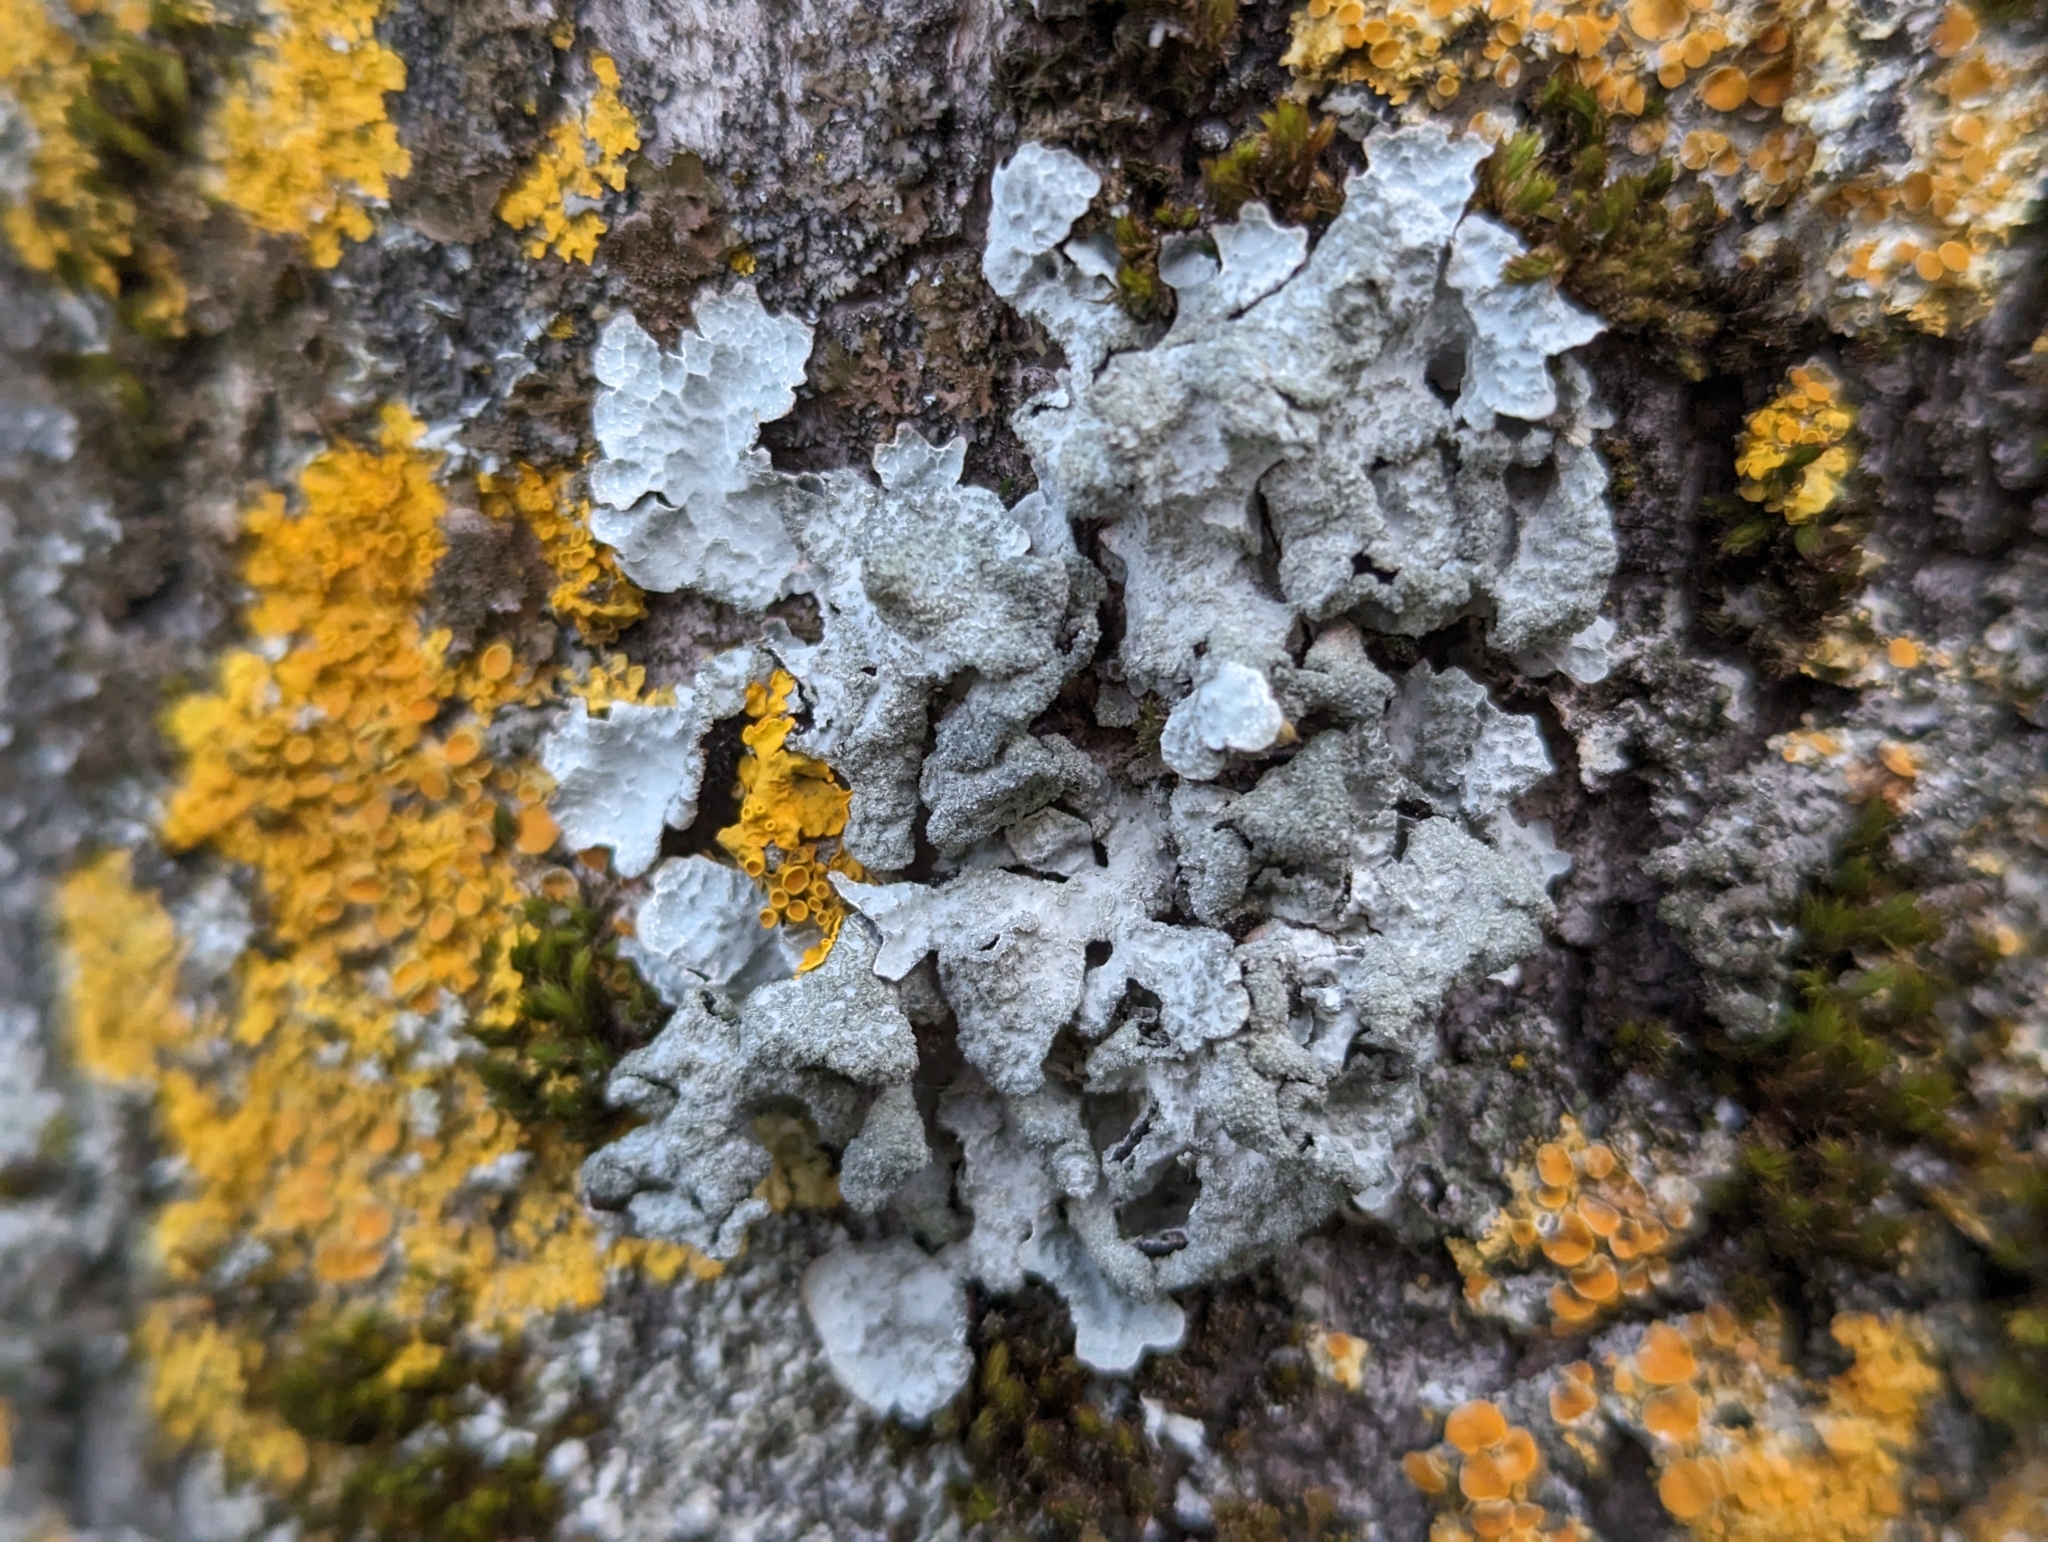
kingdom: Fungi
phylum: Ascomycota
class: Lecanoromycetes
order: Lecanorales
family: Parmeliaceae
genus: Parmelia
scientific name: Parmelia sulcata
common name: Netted shield lichen
